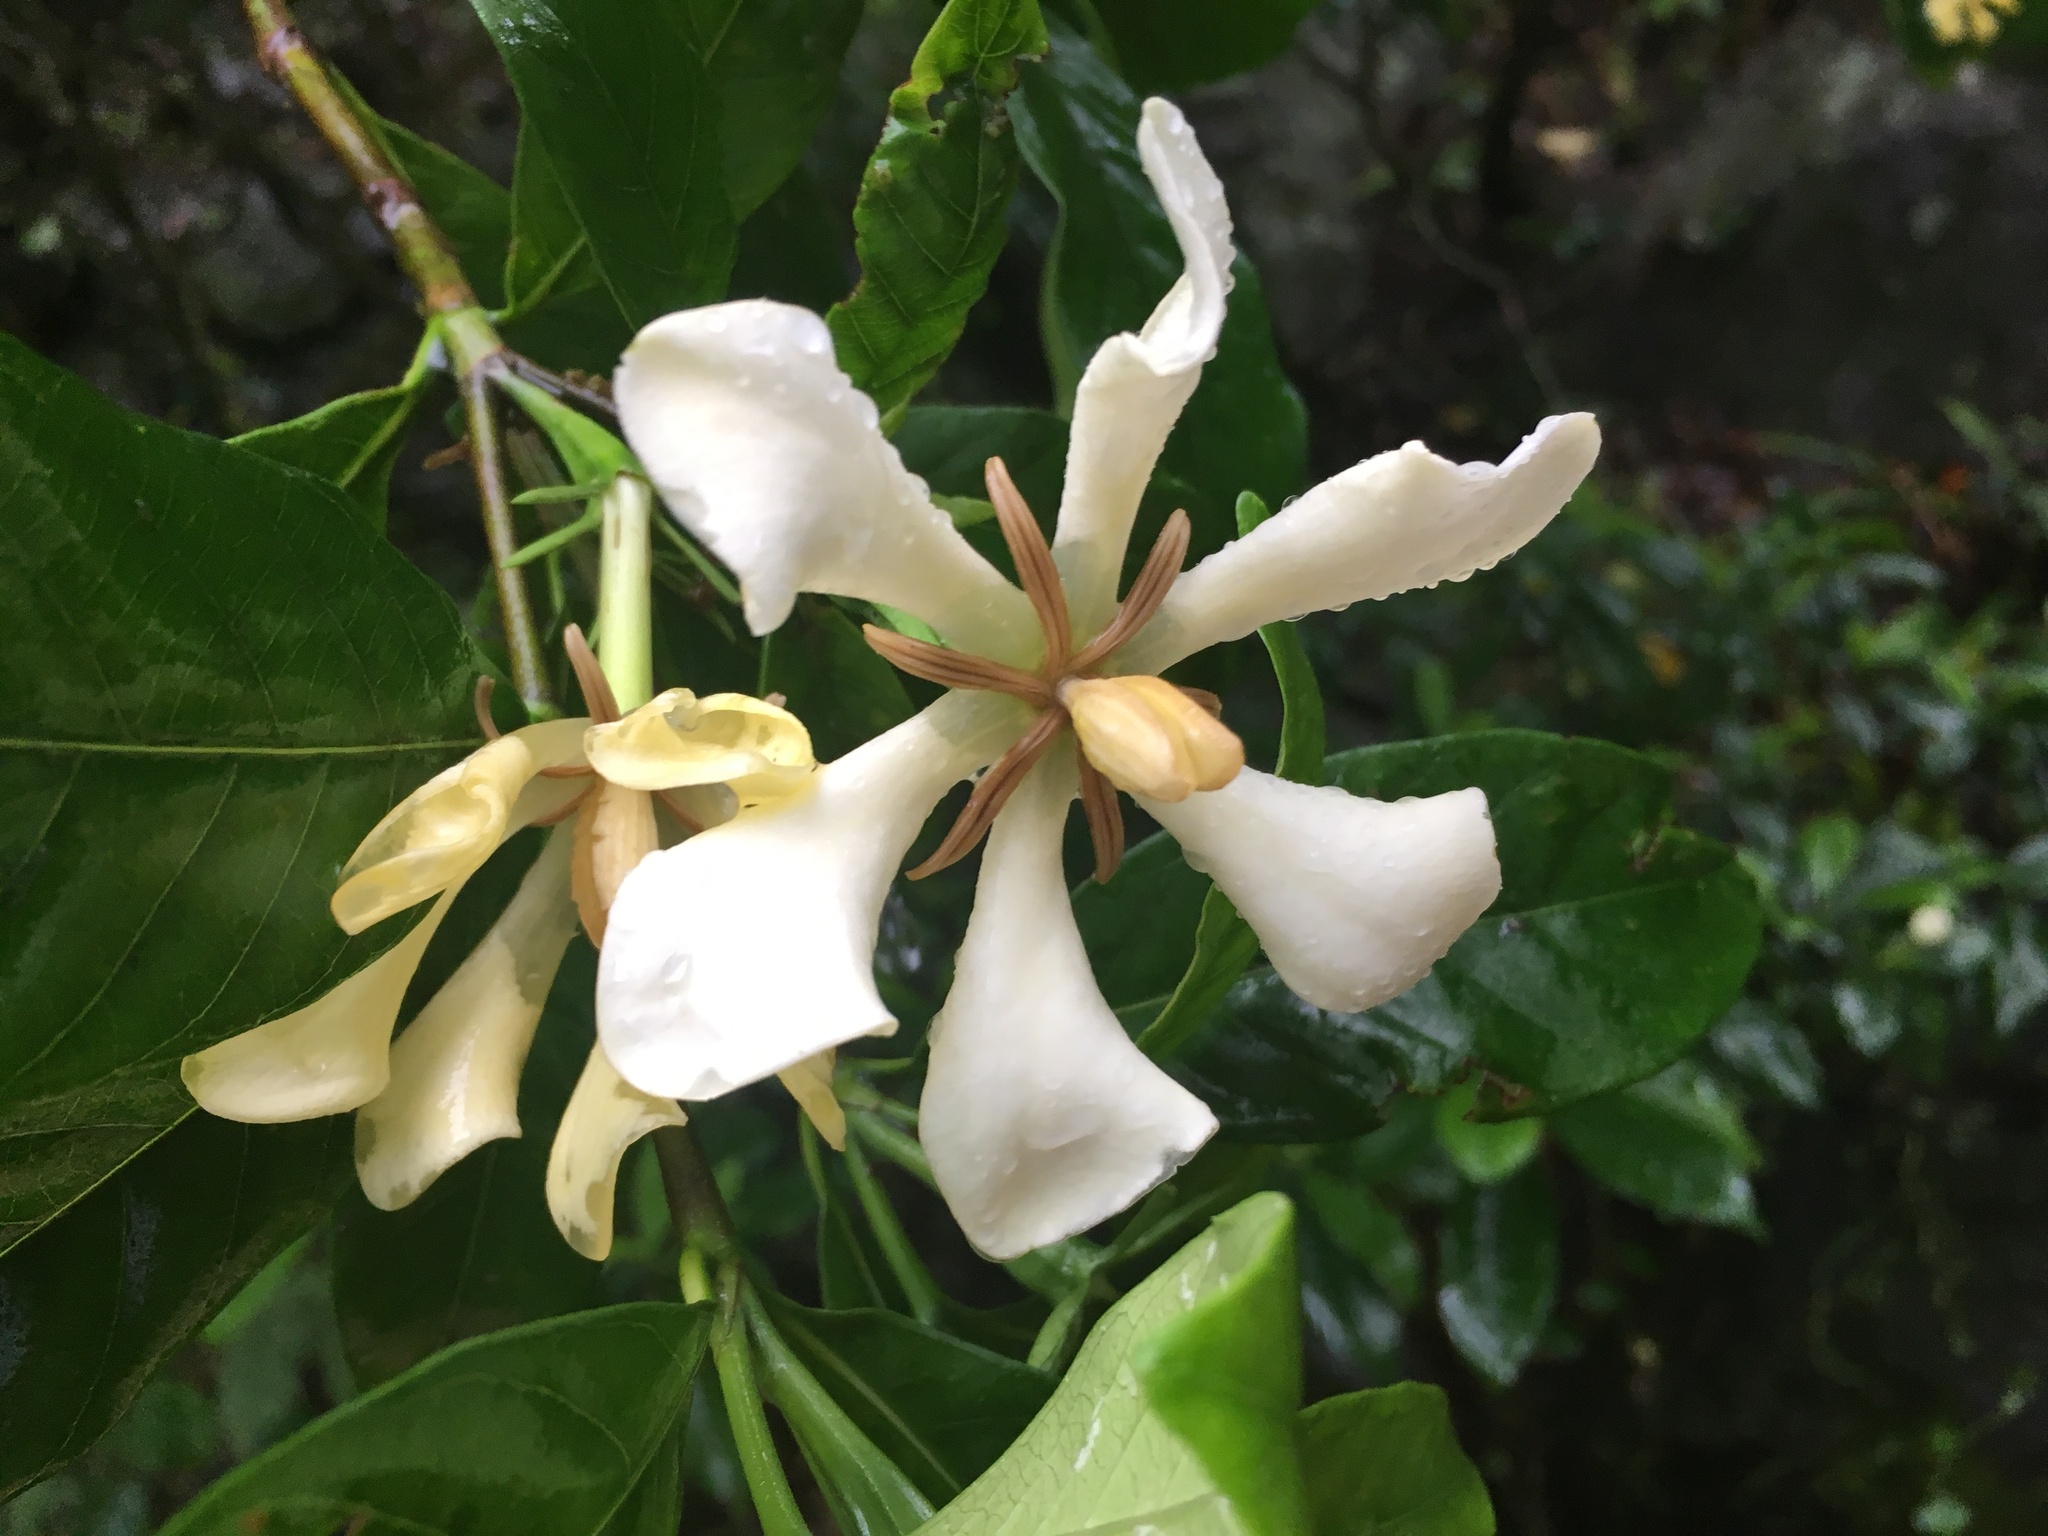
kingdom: Plantae
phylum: Tracheophyta
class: Magnoliopsida
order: Gentianales
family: Rubiaceae
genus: Gardenia
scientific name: Gardenia jasminoides
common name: Cape-jasmine
